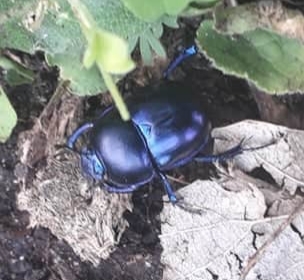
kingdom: Animalia
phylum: Arthropoda
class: Insecta
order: Coleoptera
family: Geotrupidae
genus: Trypocopris
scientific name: Trypocopris vernalis
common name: Spring dumbledor
